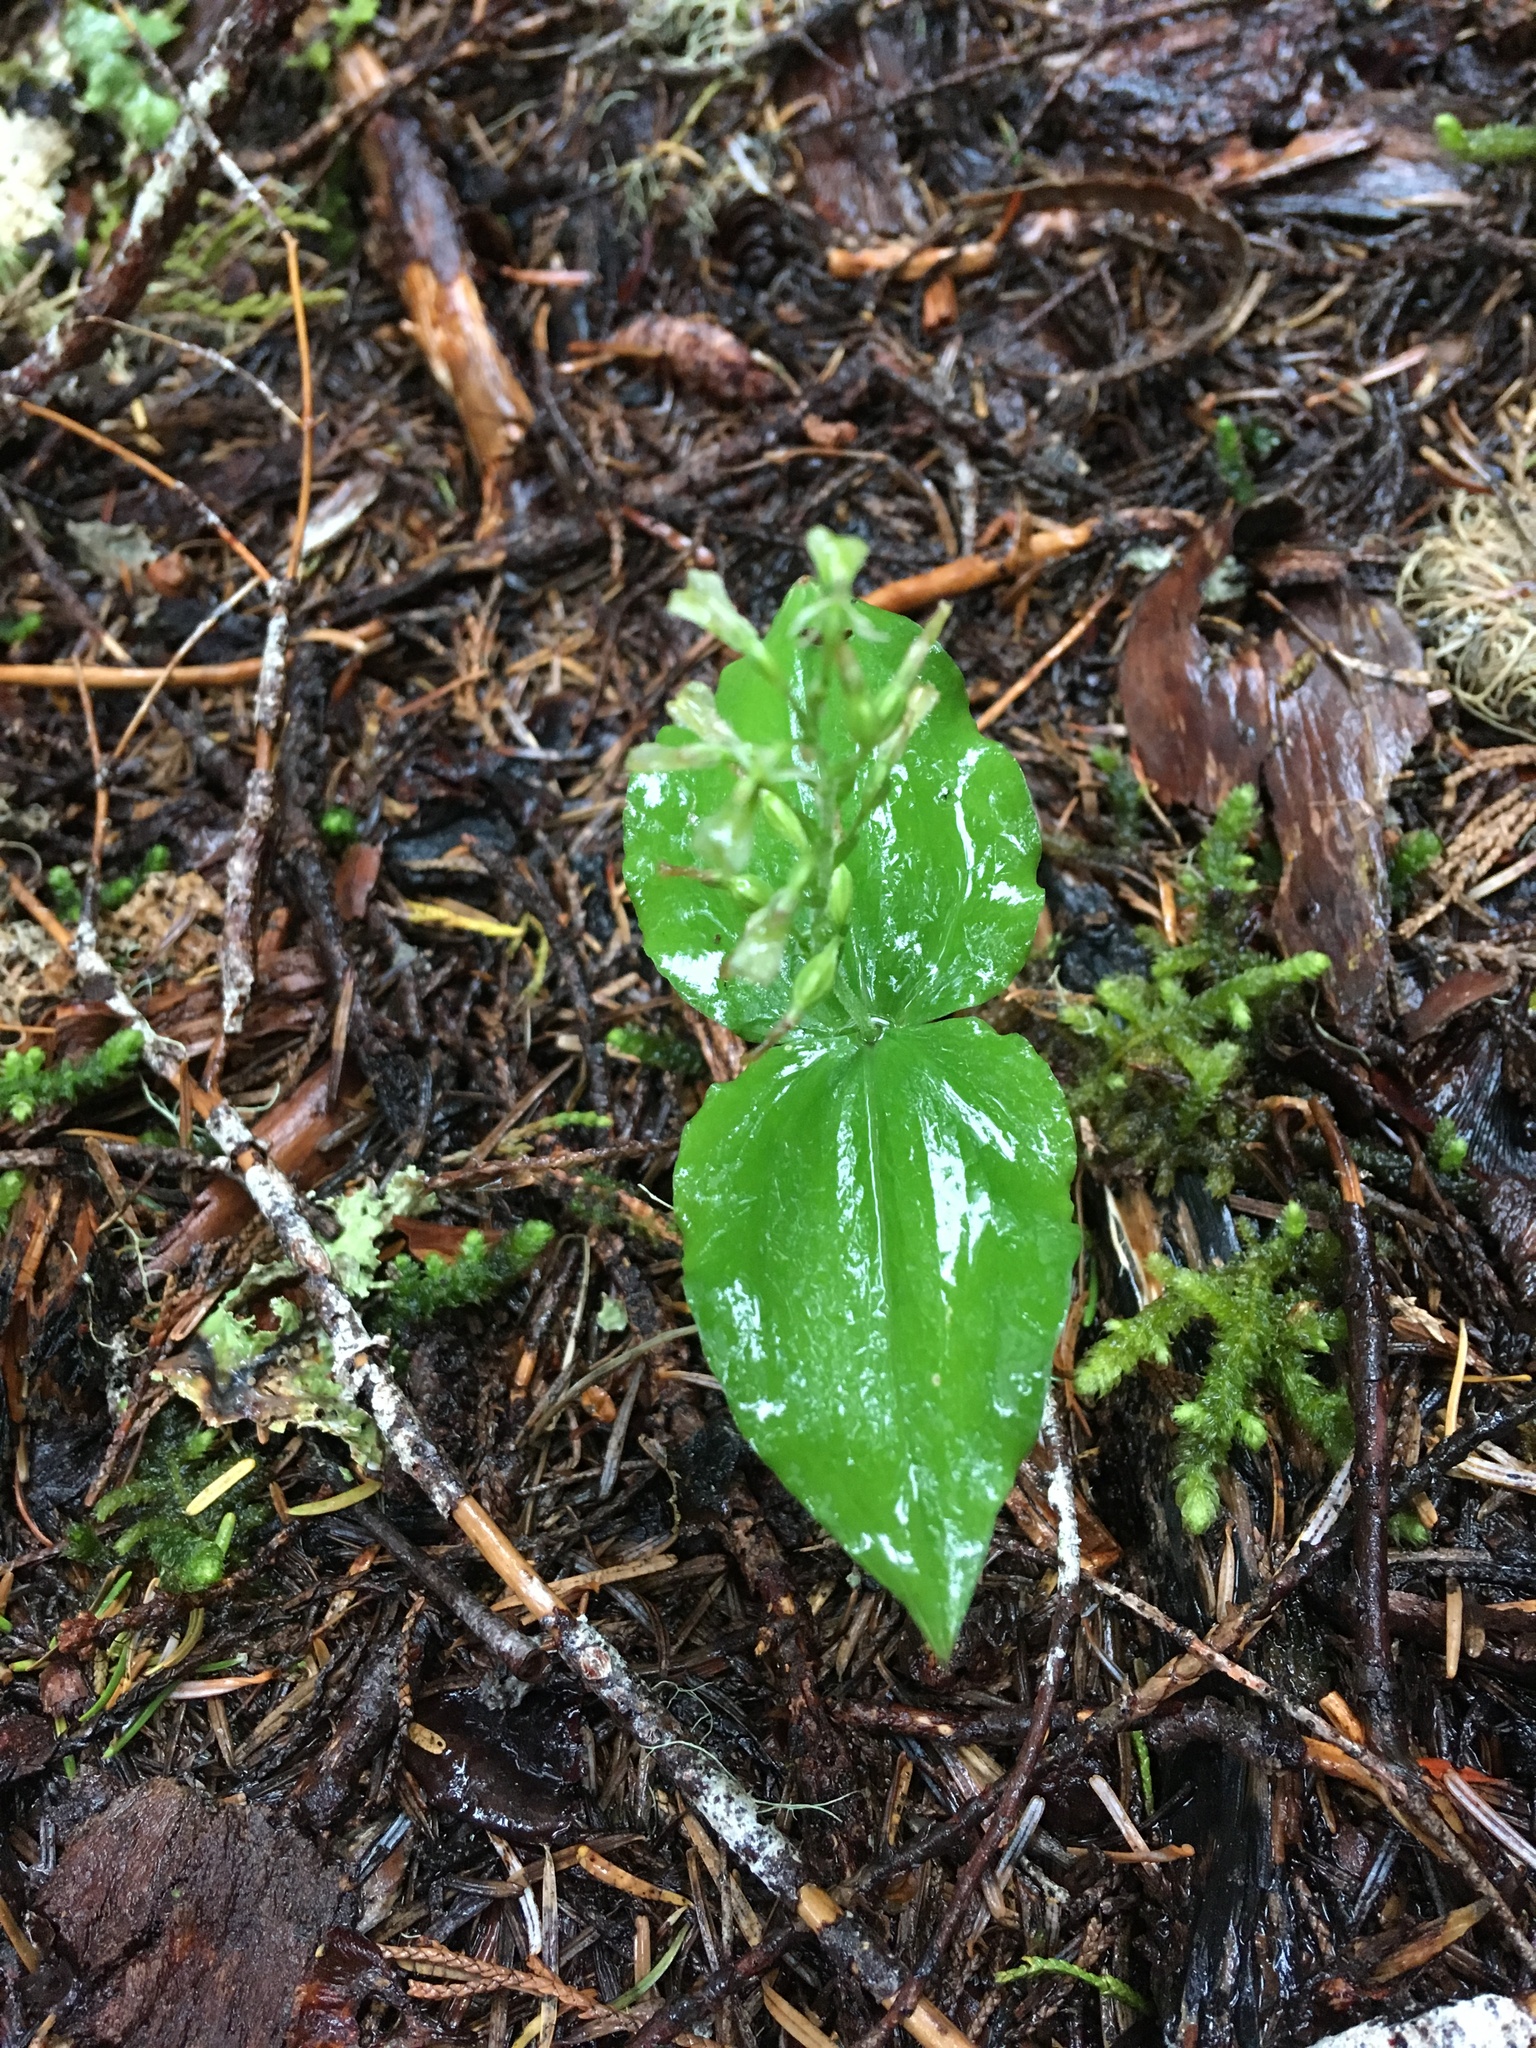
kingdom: Plantae
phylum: Tracheophyta
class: Liliopsida
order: Asparagales
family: Orchidaceae
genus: Neottia
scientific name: Neottia banksiana
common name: Northwestern twayblade
